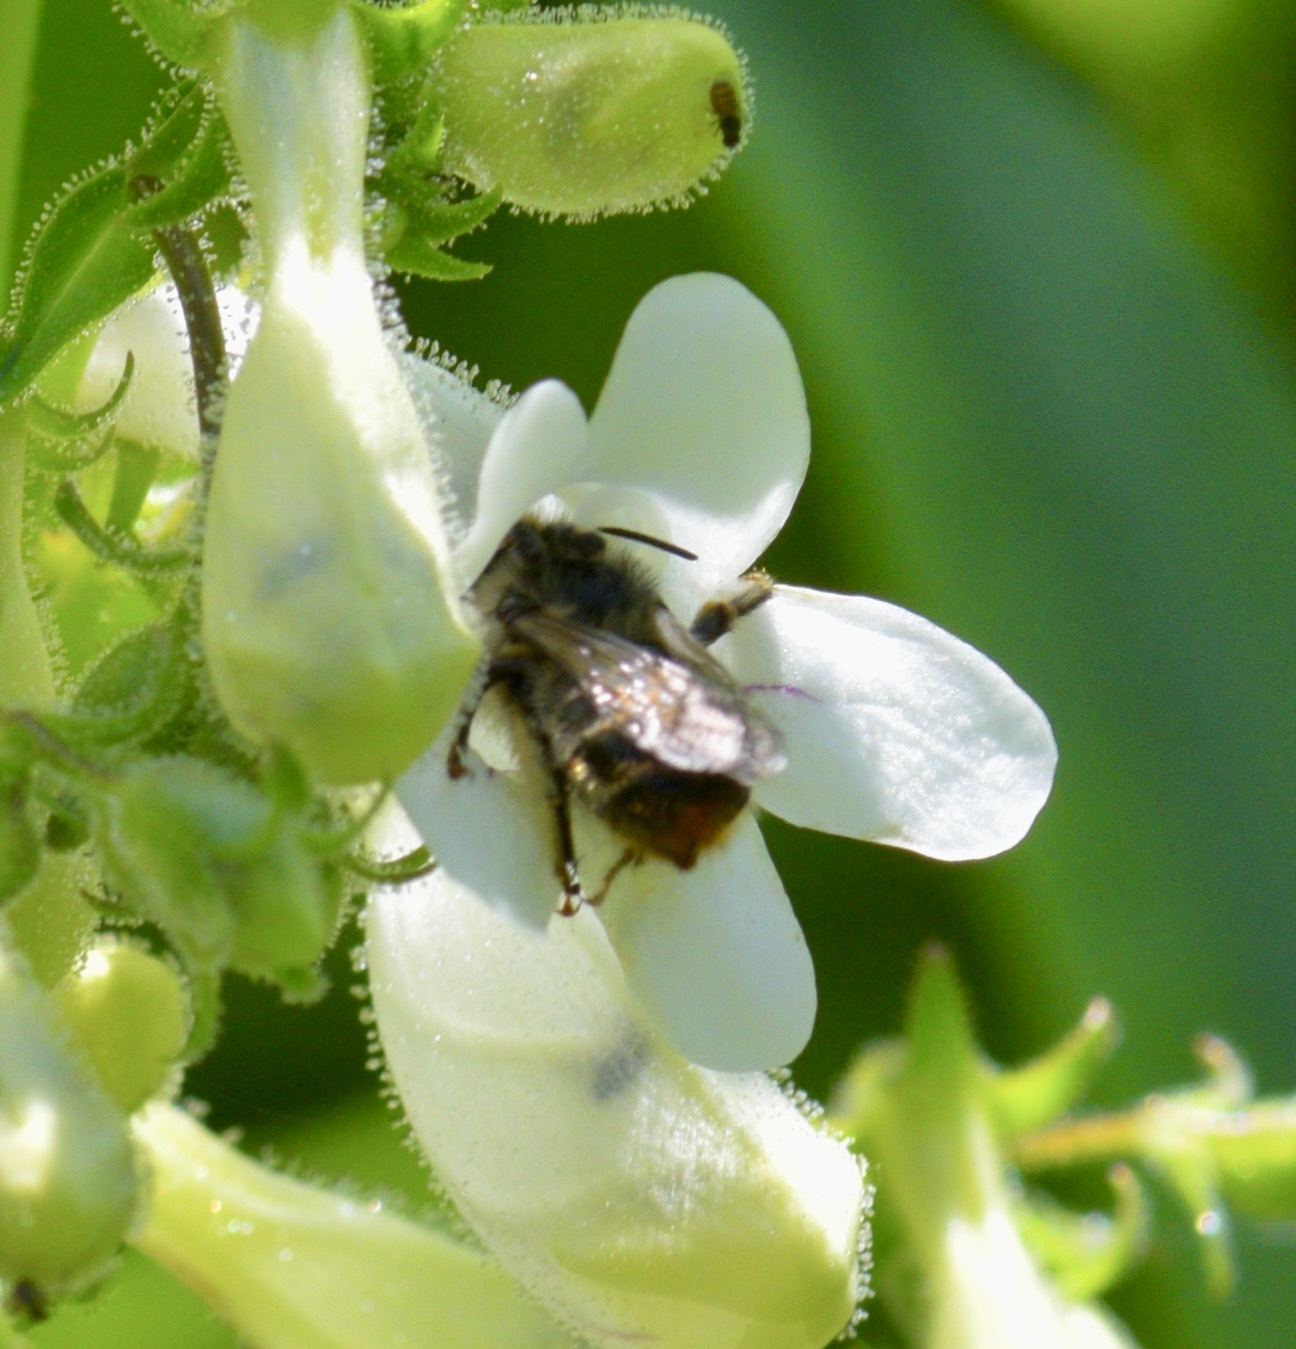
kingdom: Animalia
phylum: Arthropoda
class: Insecta
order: Hymenoptera
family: Apidae
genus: Anthophora
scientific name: Anthophora terminalis
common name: Orange-tipped wood-digger bee
